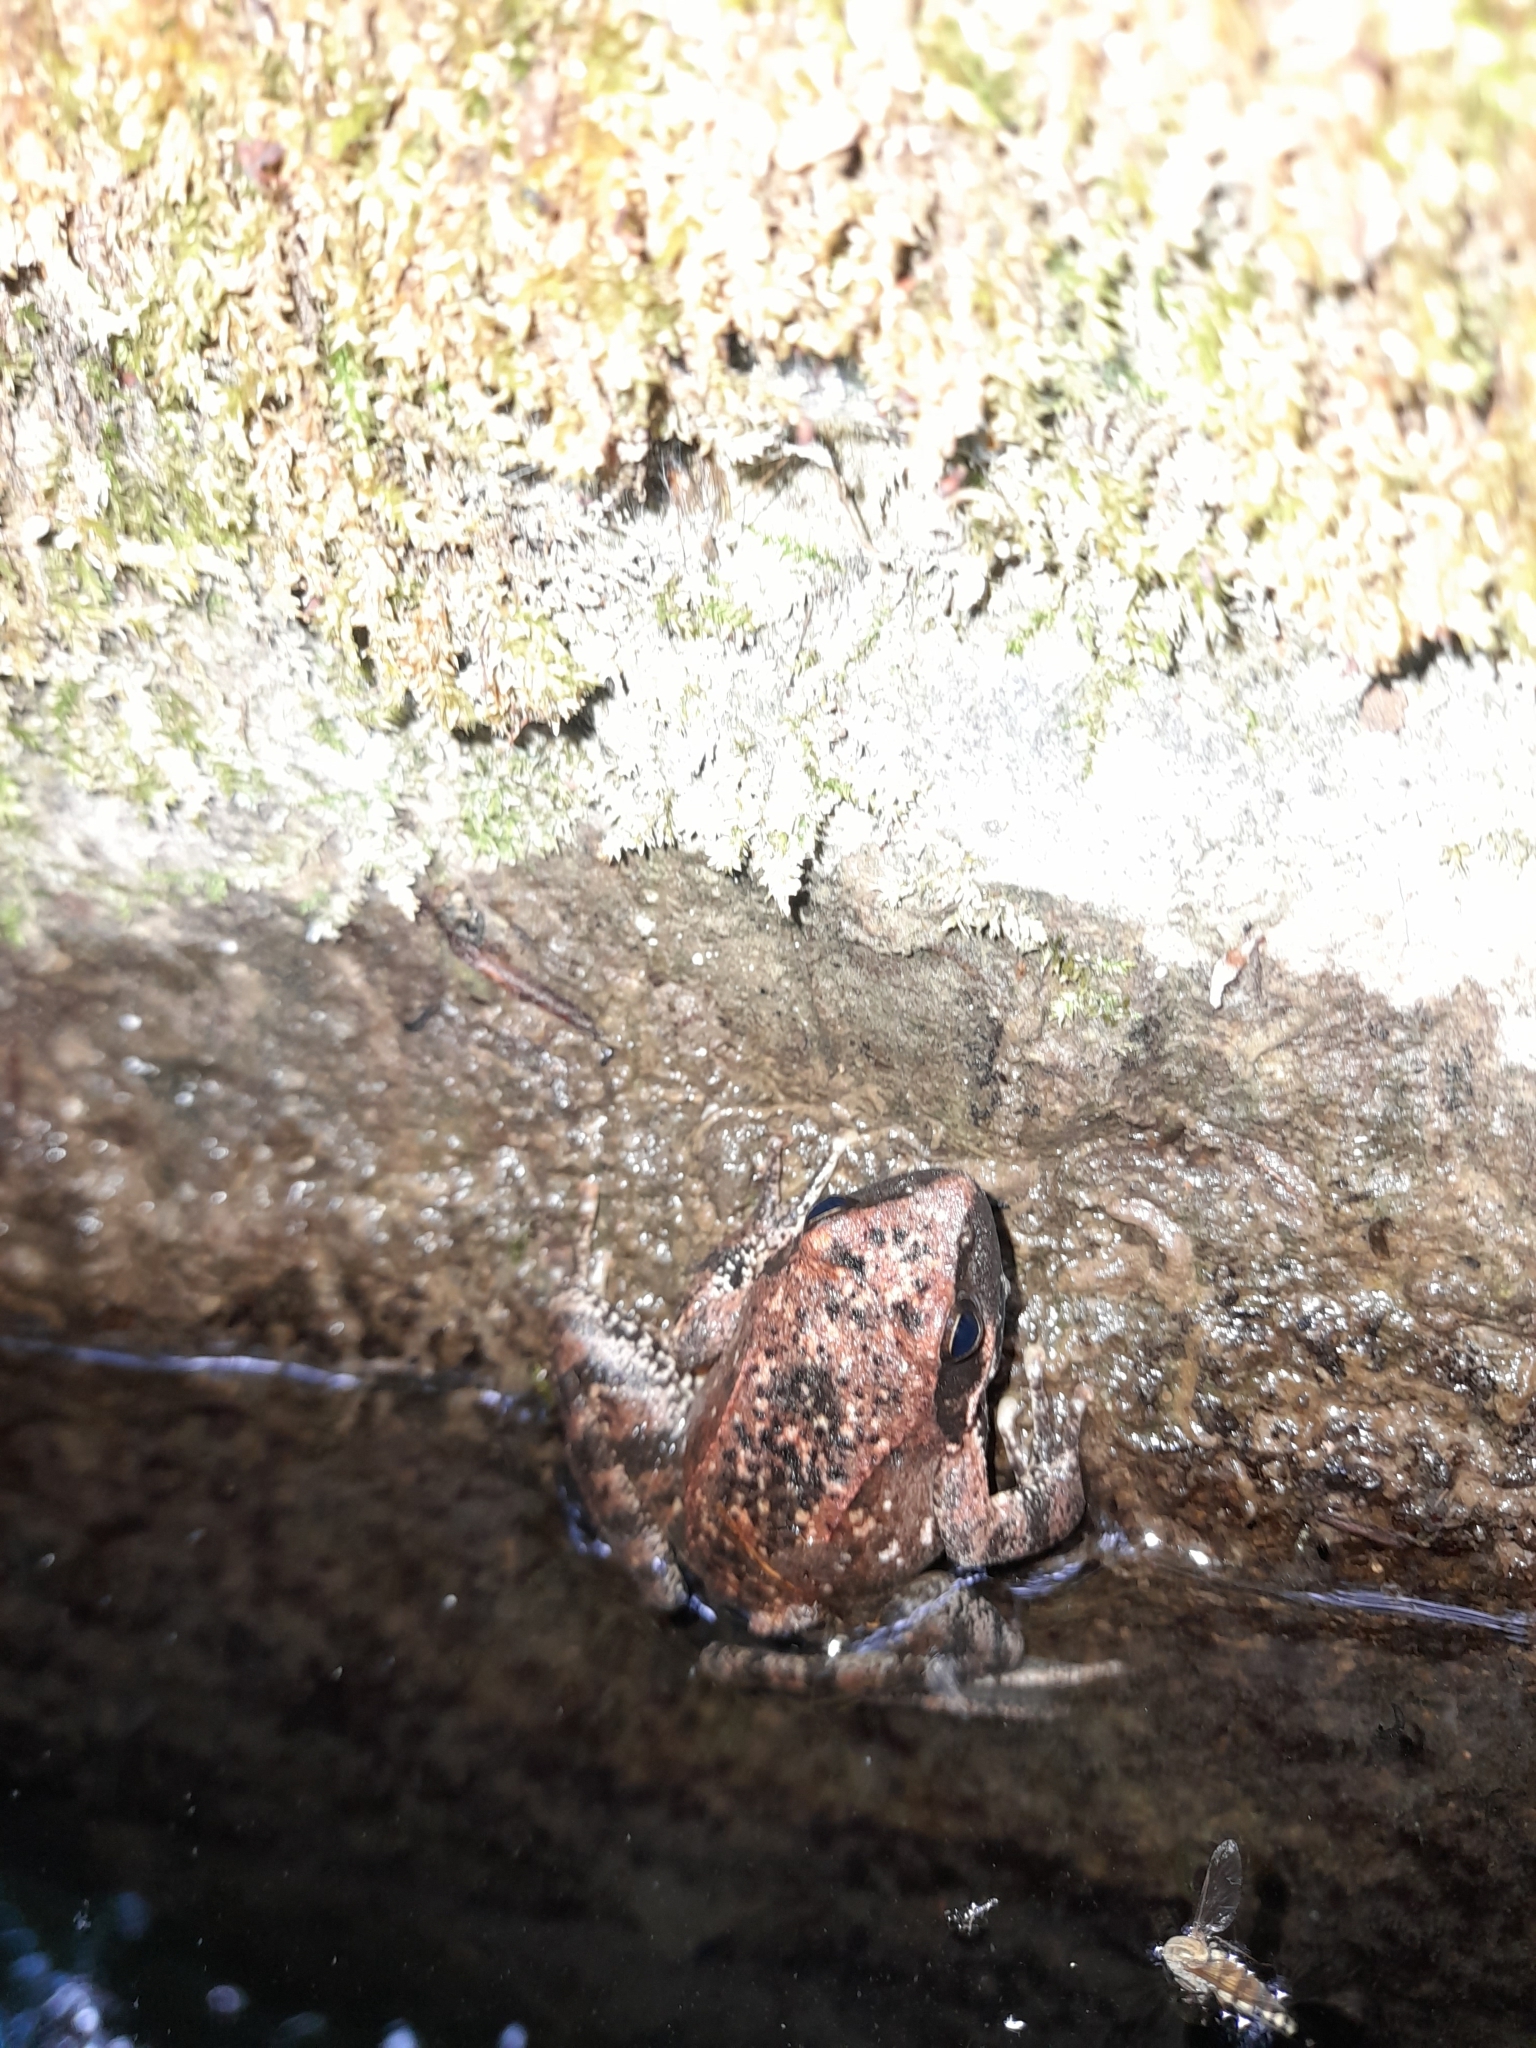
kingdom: Animalia
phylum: Chordata
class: Amphibia
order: Anura
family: Ranidae
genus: Rana
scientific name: Rana italica
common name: Italian stream frog
